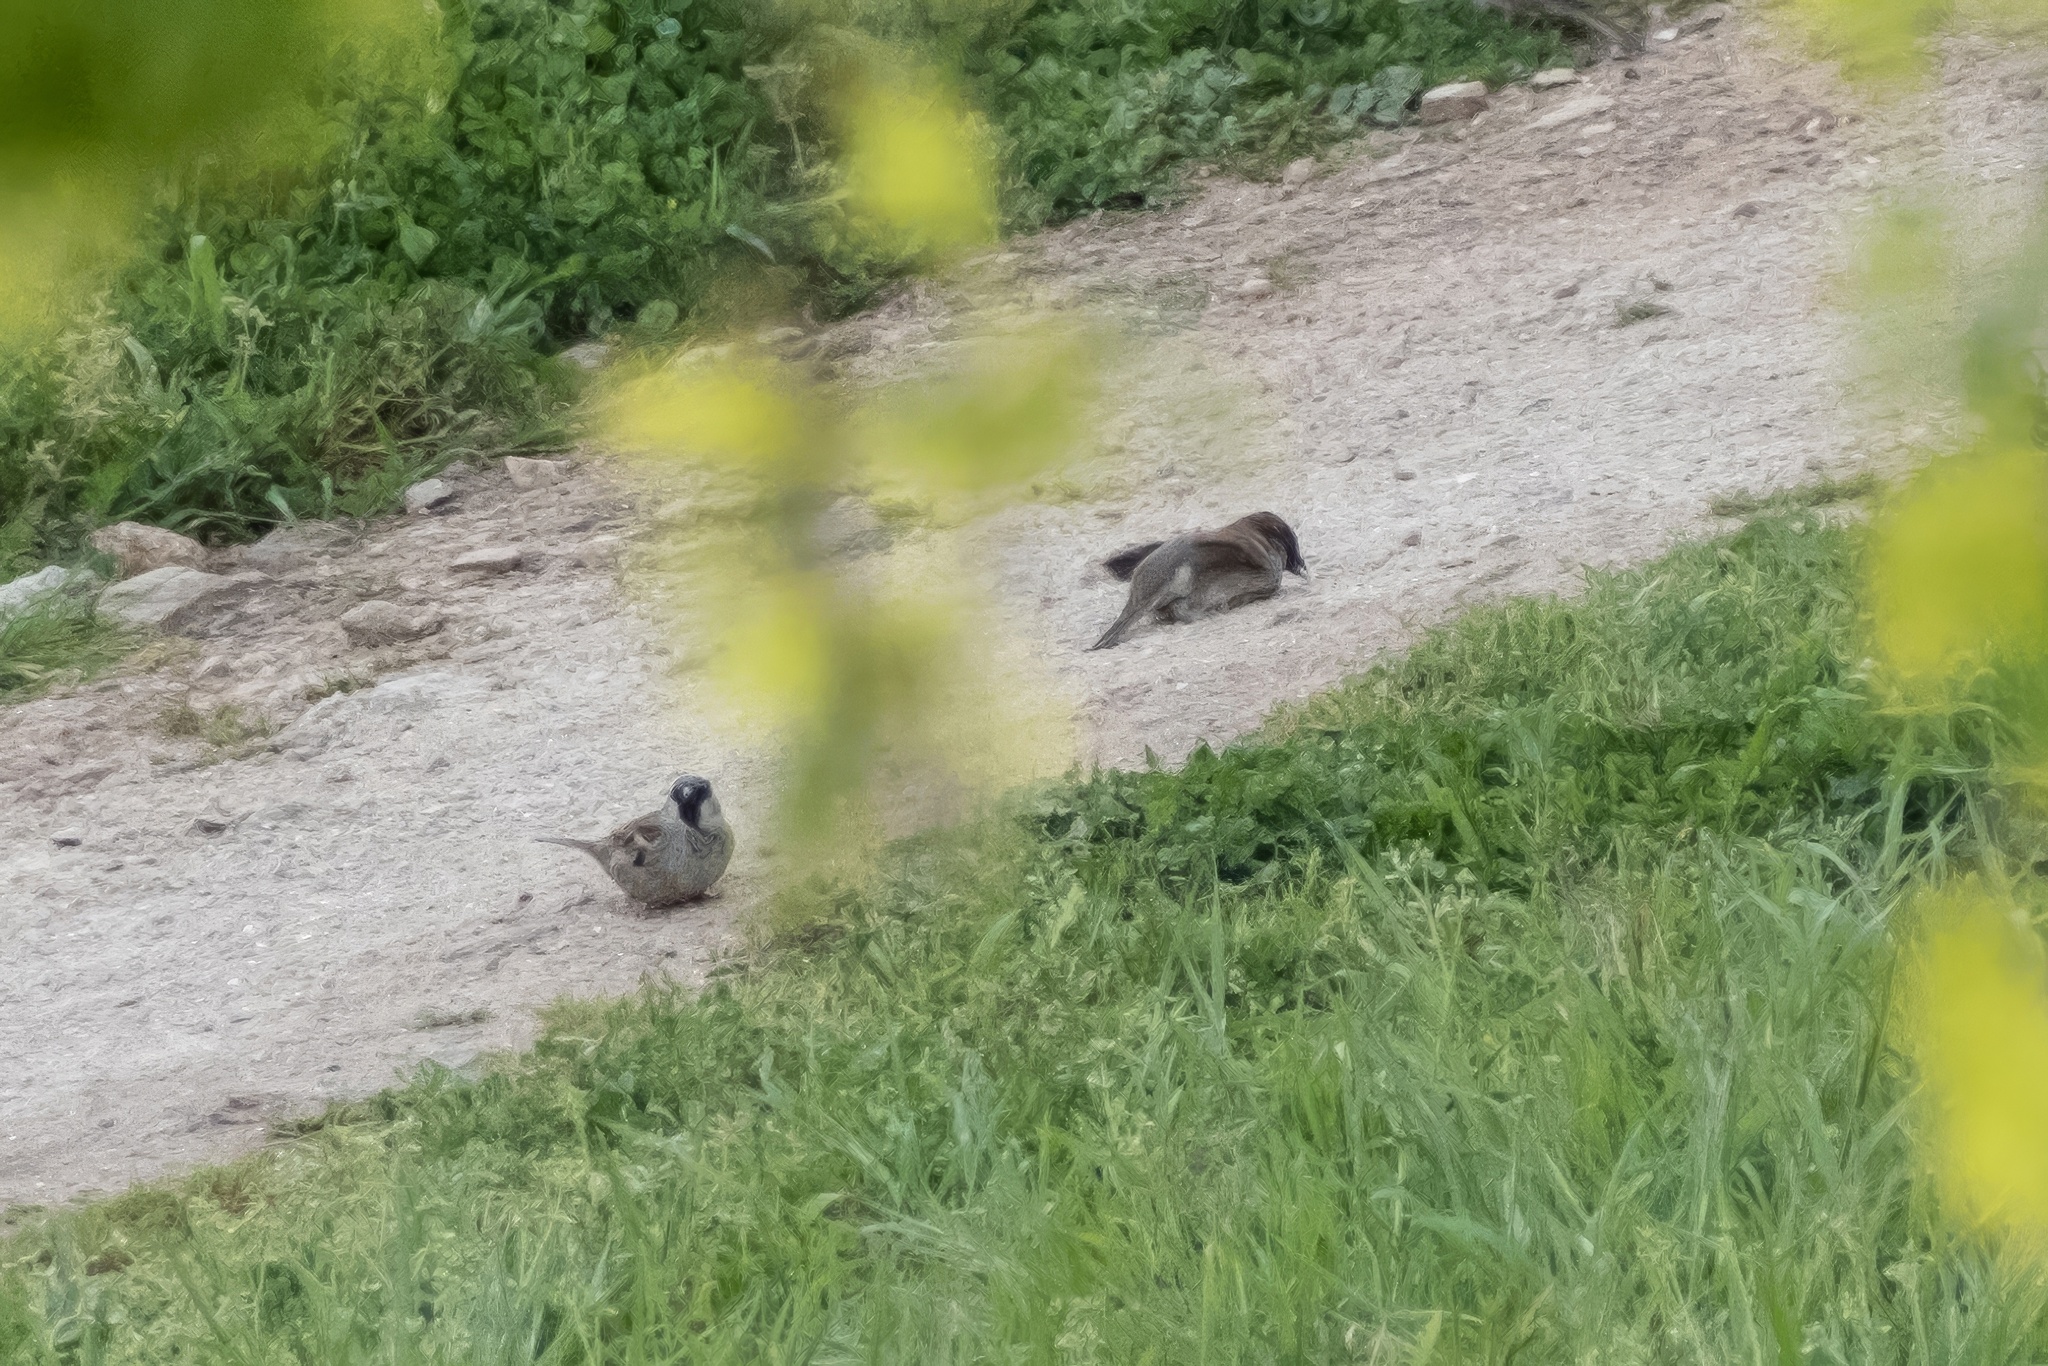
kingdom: Animalia
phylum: Chordata
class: Aves
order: Passeriformes
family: Passeridae
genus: Passer
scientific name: Passer domesticus
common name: House sparrow
